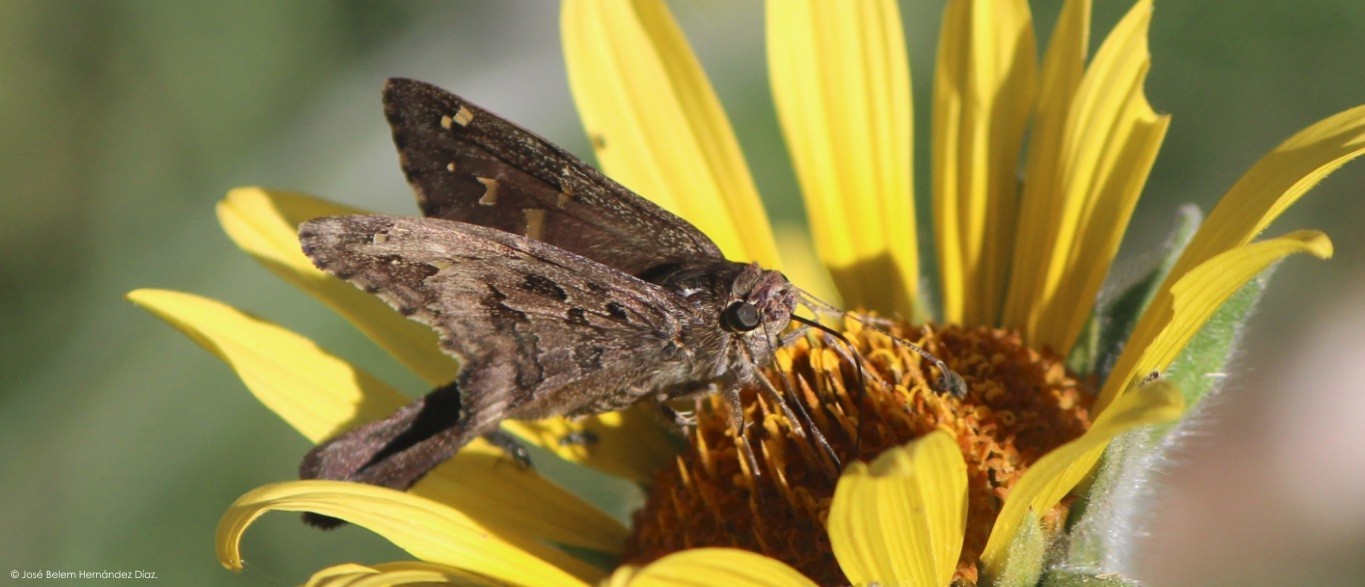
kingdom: Animalia
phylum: Arthropoda
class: Insecta
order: Lepidoptera
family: Hesperiidae
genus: Thorybes
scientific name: Thorybes
